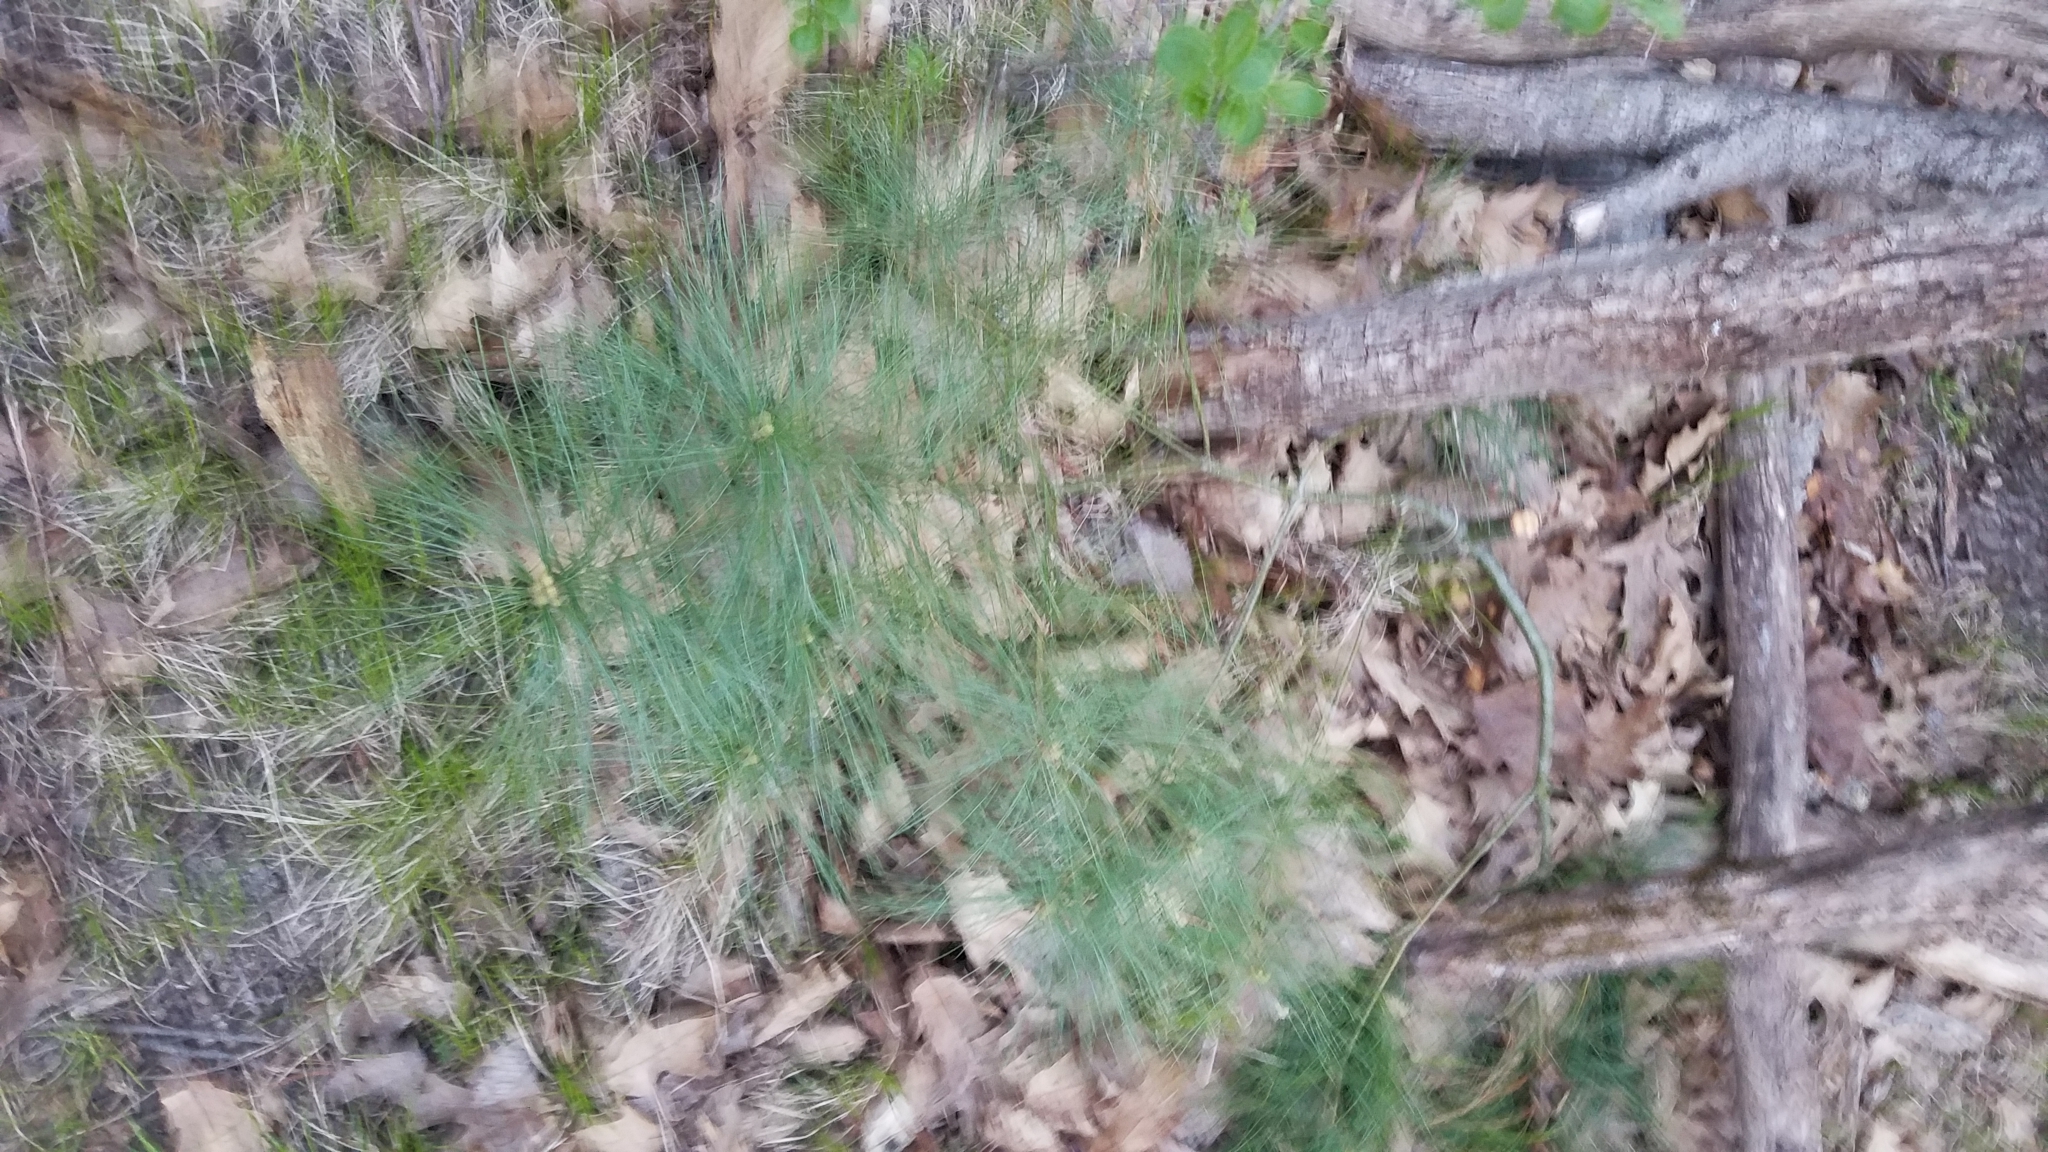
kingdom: Plantae
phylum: Tracheophyta
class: Pinopsida
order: Pinales
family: Pinaceae
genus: Pinus
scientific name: Pinus strobus
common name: Weymouth pine
